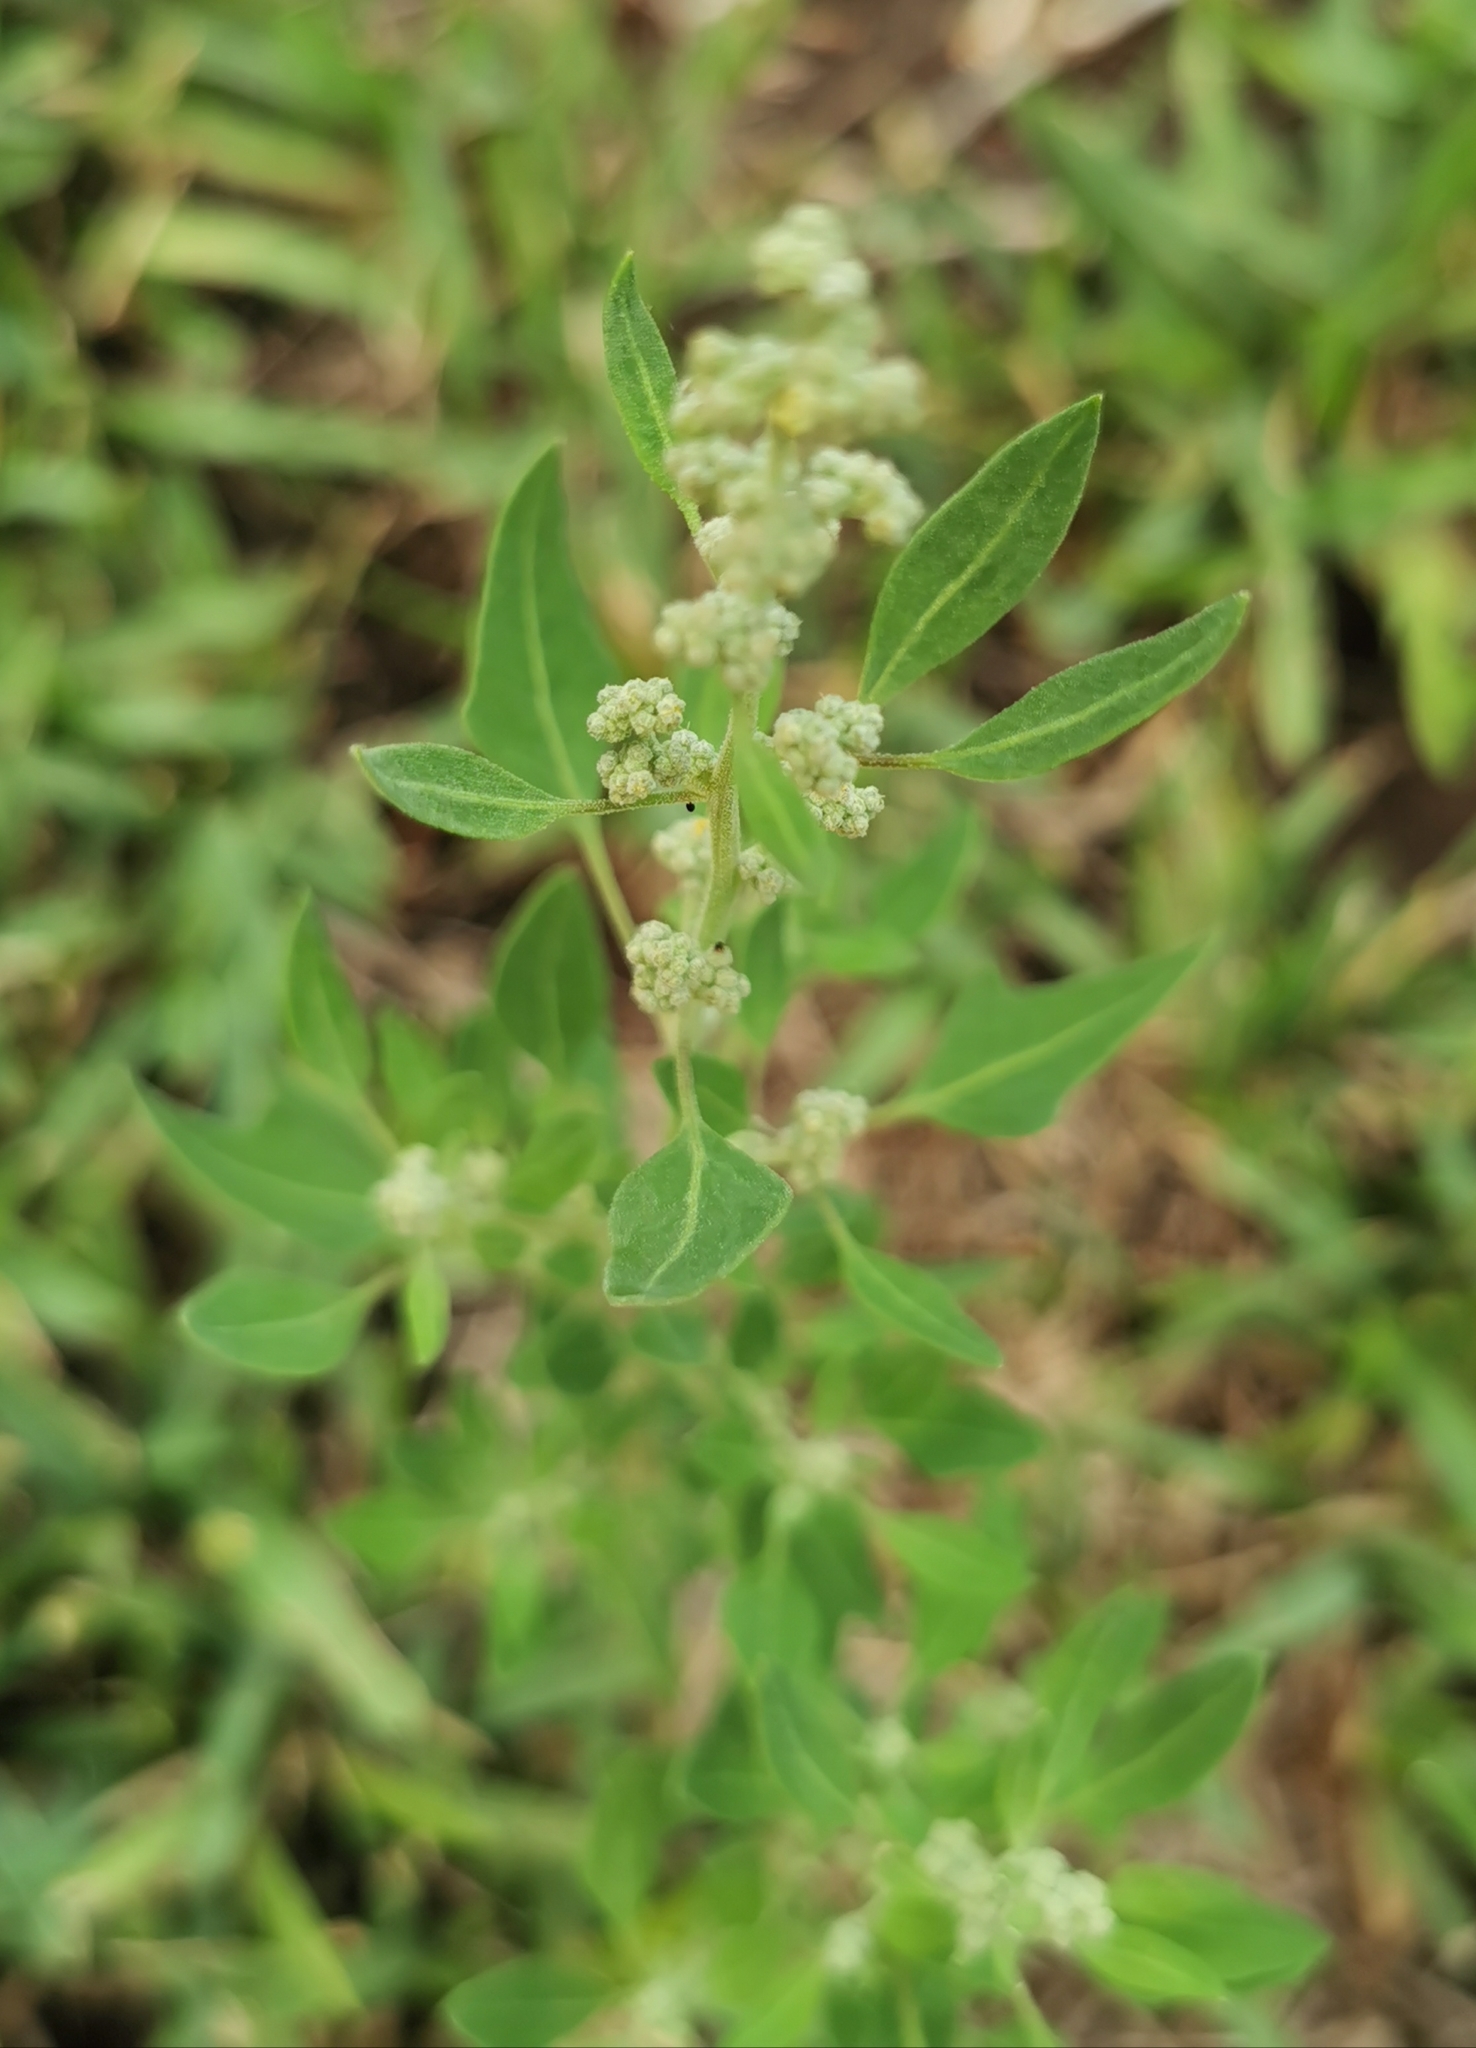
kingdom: Plantae
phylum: Tracheophyta
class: Magnoliopsida
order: Caryophyllales
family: Amaranthaceae
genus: Chenopodium
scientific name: Chenopodium album
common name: Fat-hen
